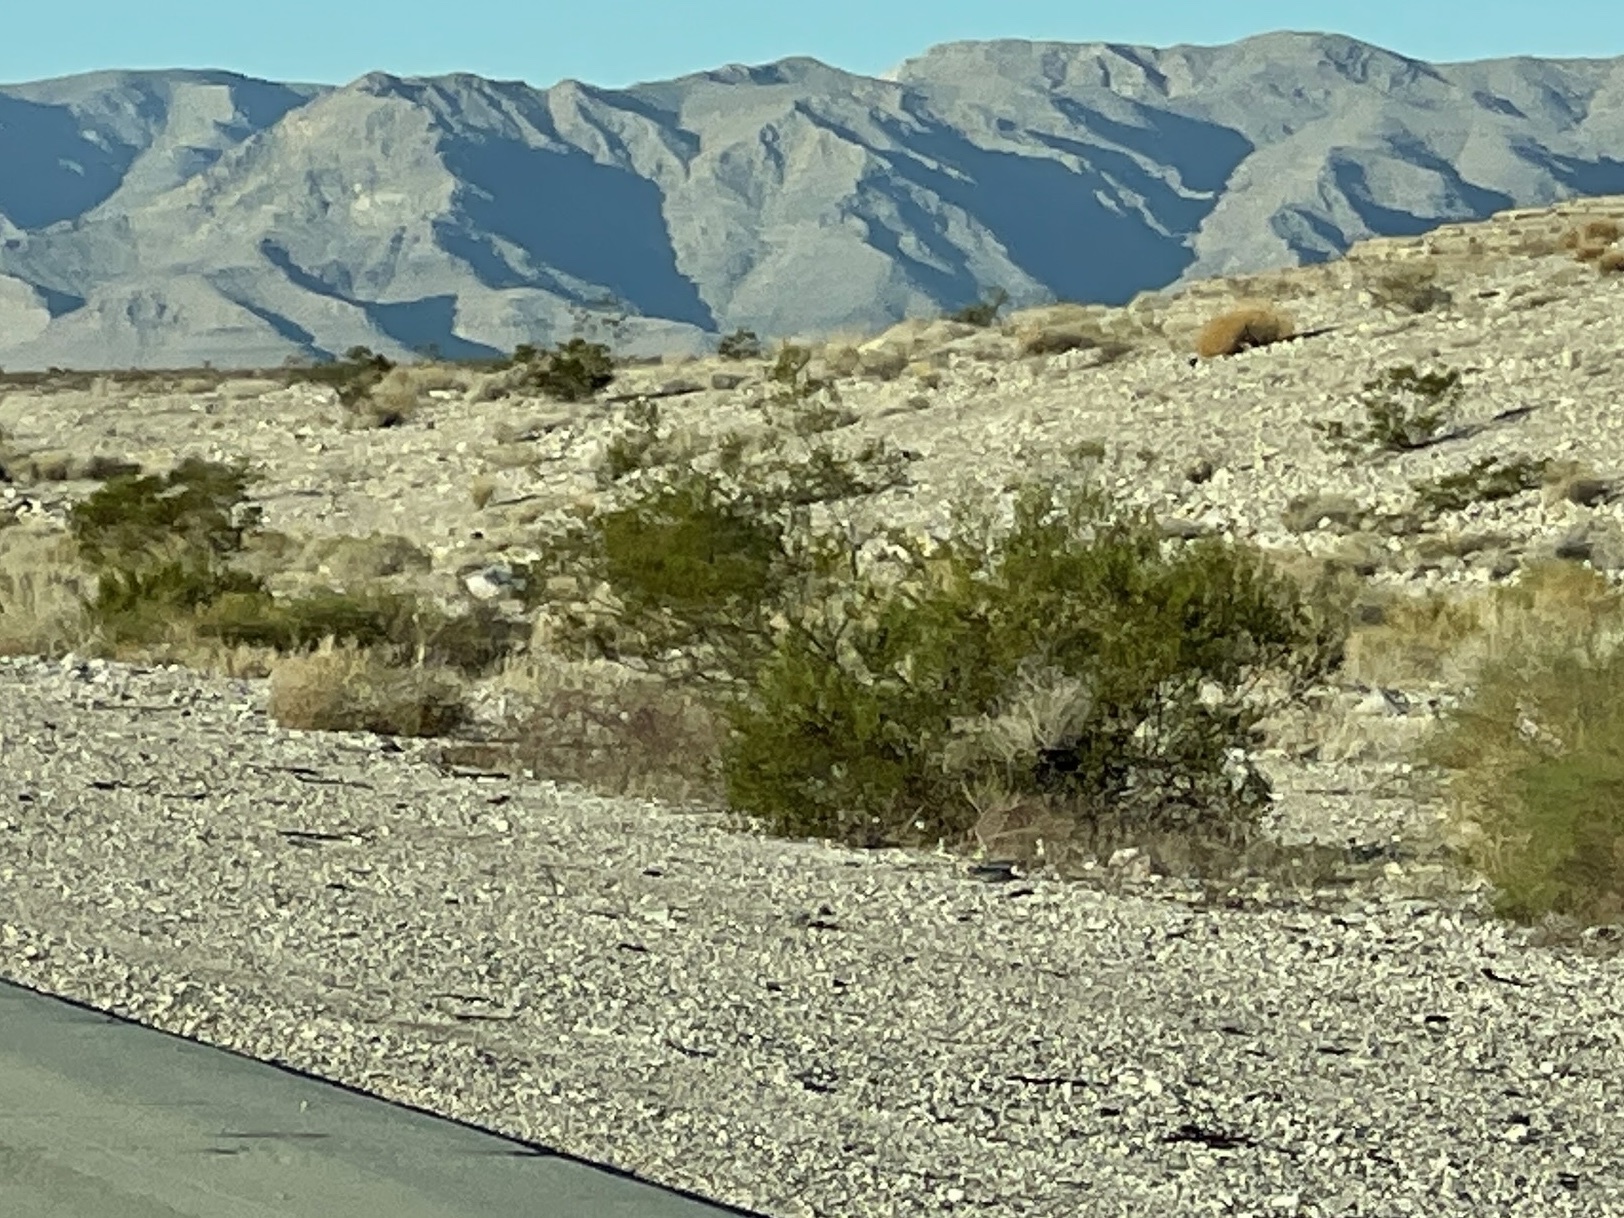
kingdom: Plantae
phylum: Tracheophyta
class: Magnoliopsida
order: Zygophyllales
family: Zygophyllaceae
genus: Larrea
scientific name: Larrea tridentata
